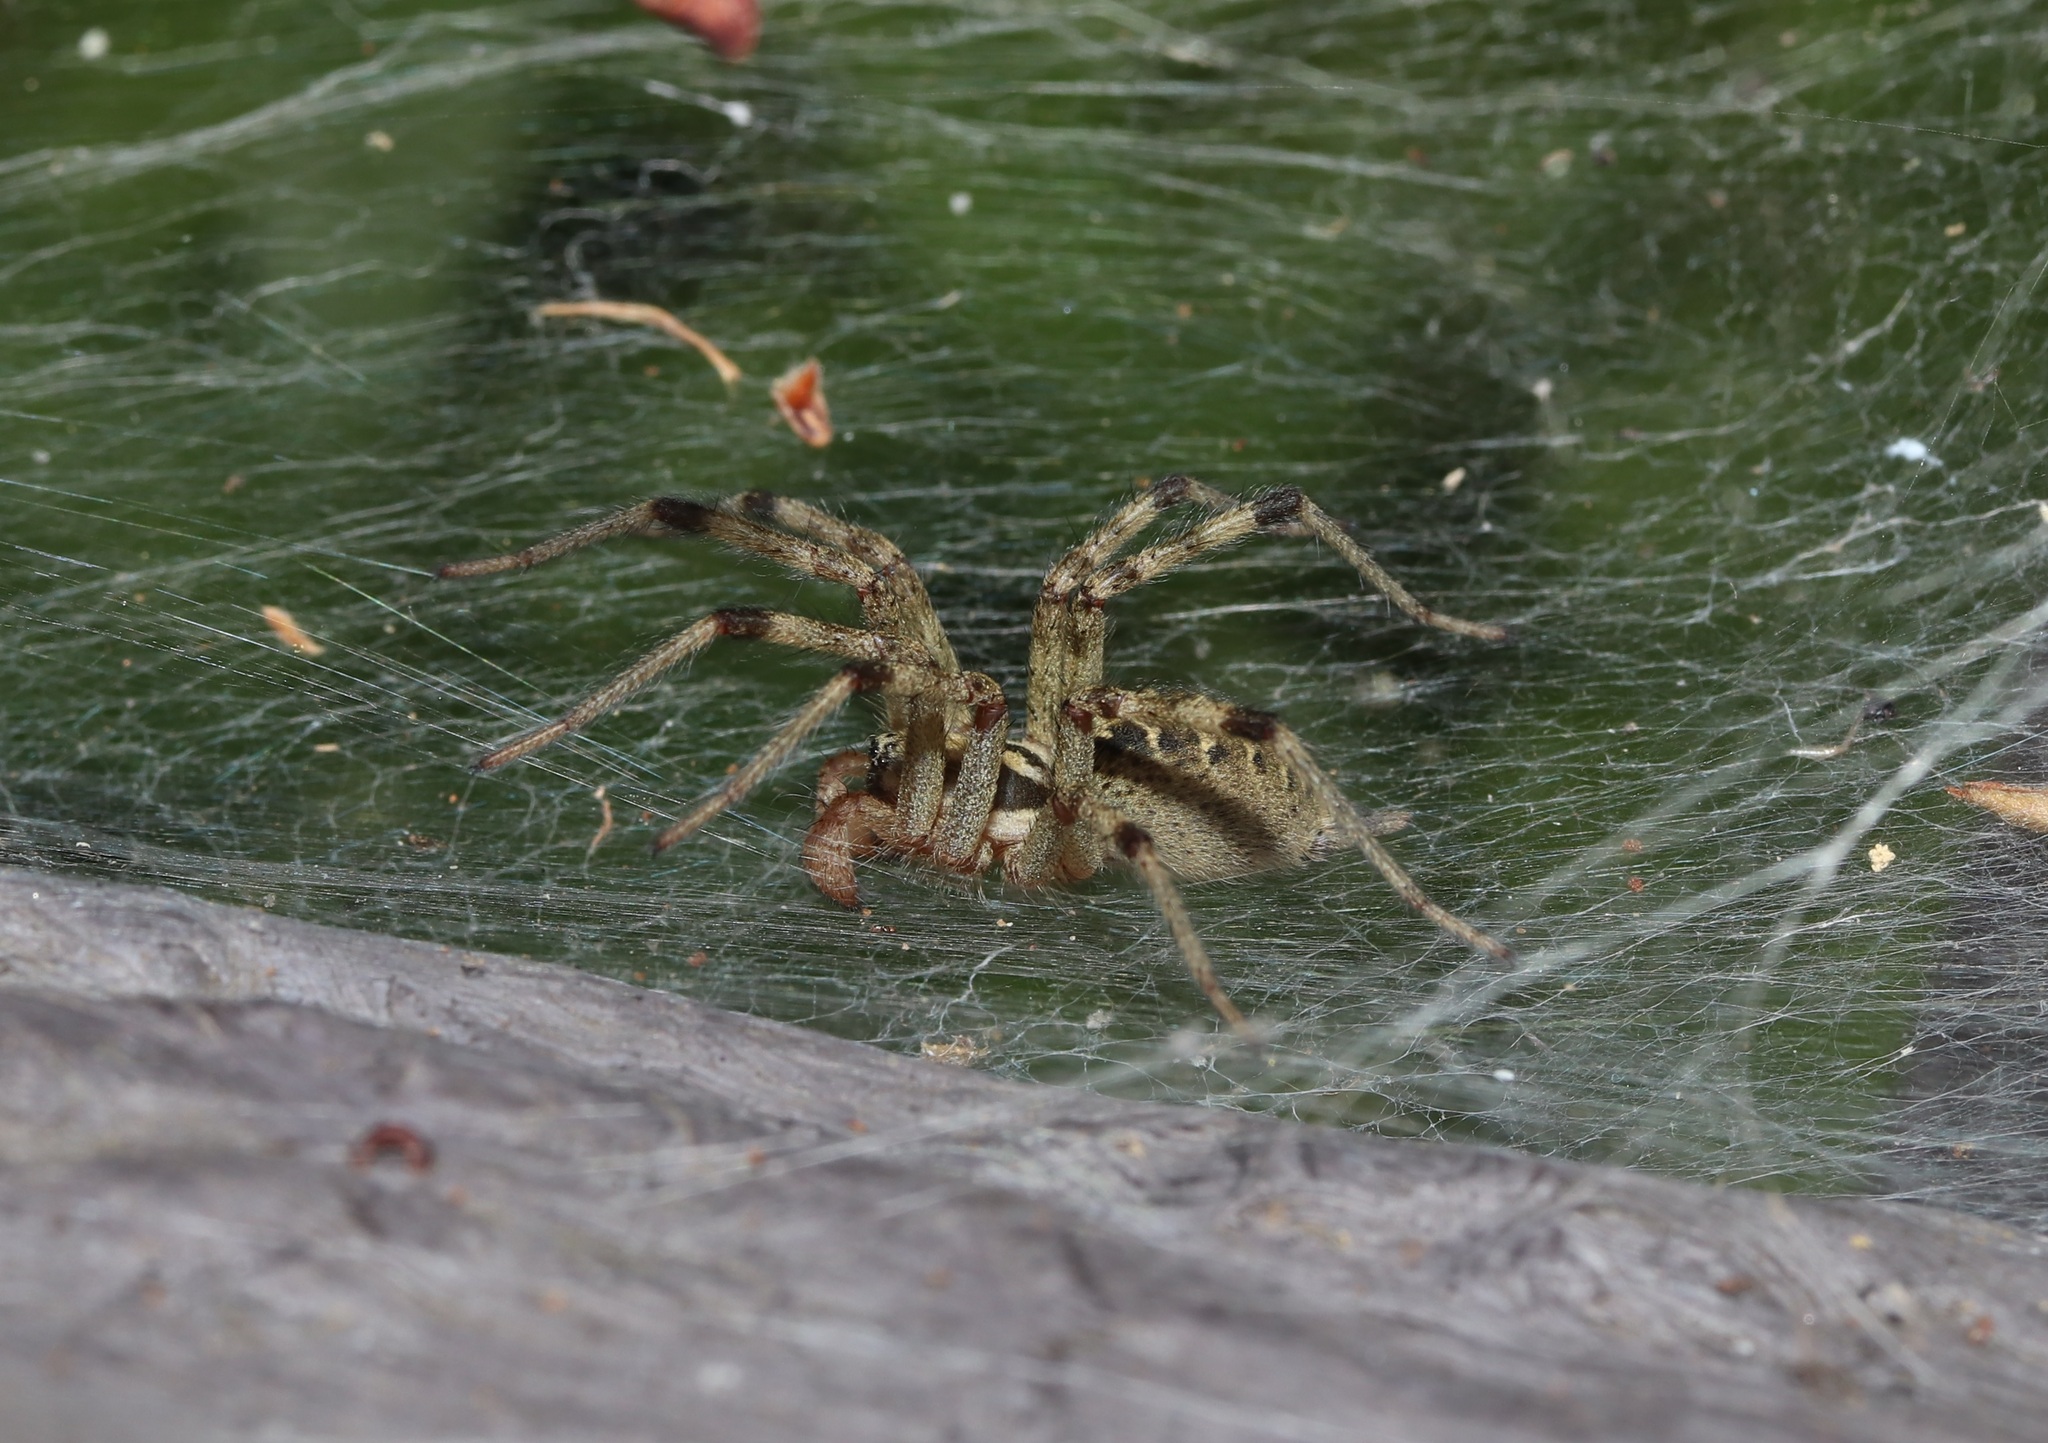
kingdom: Animalia
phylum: Arthropoda
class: Arachnida
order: Araneae
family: Agelenidae
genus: Agelena
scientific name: Agelena silvatica
